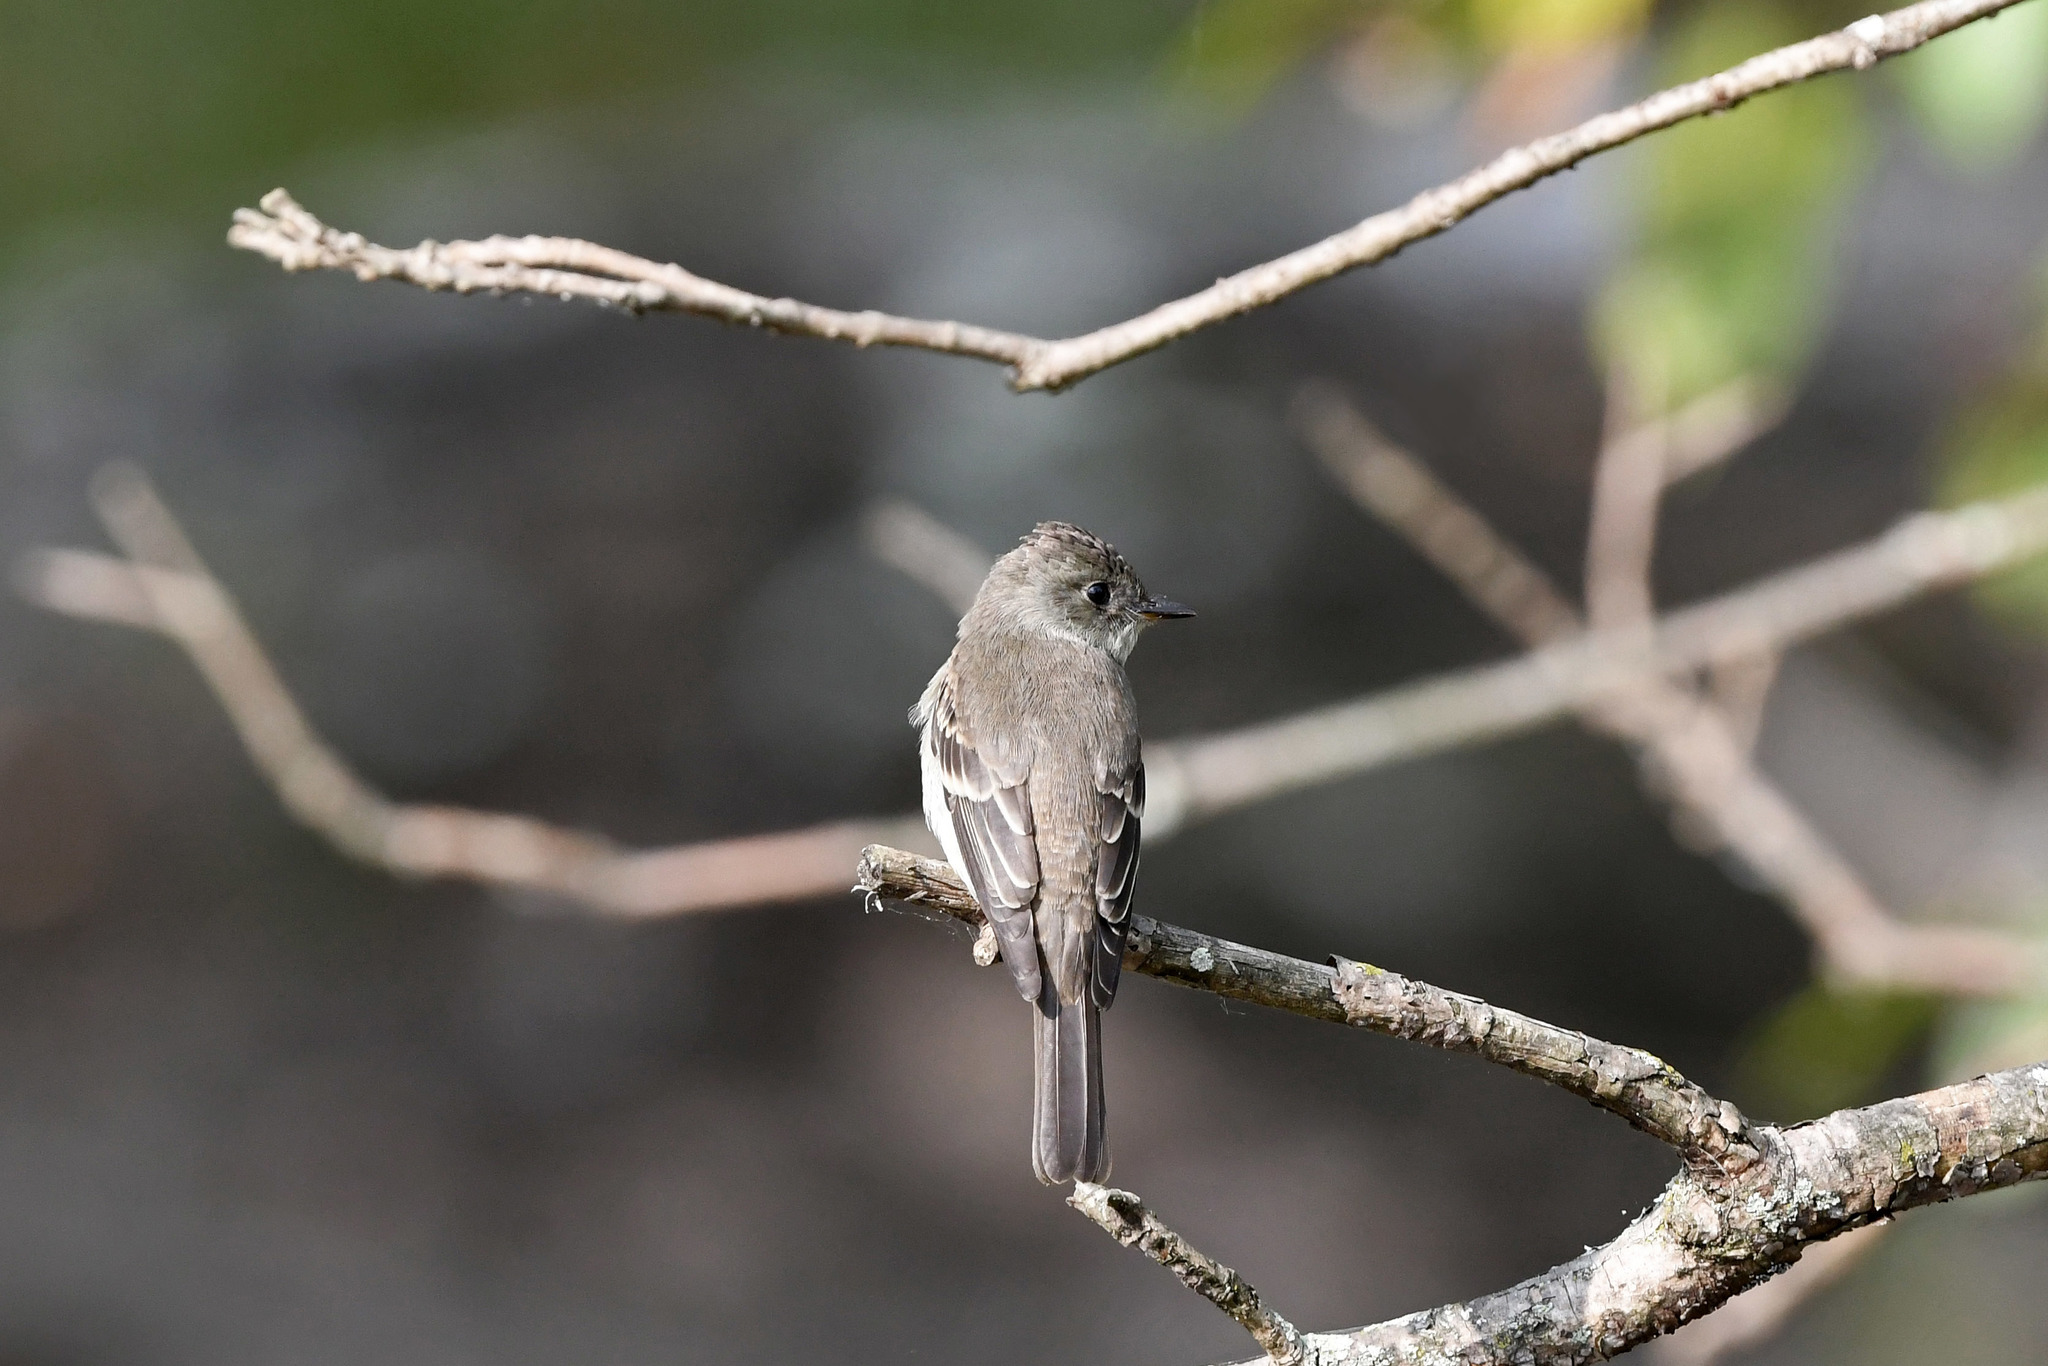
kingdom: Animalia
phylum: Chordata
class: Aves
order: Passeriformes
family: Tyrannidae
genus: Contopus
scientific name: Contopus virens
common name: Eastern wood-pewee
